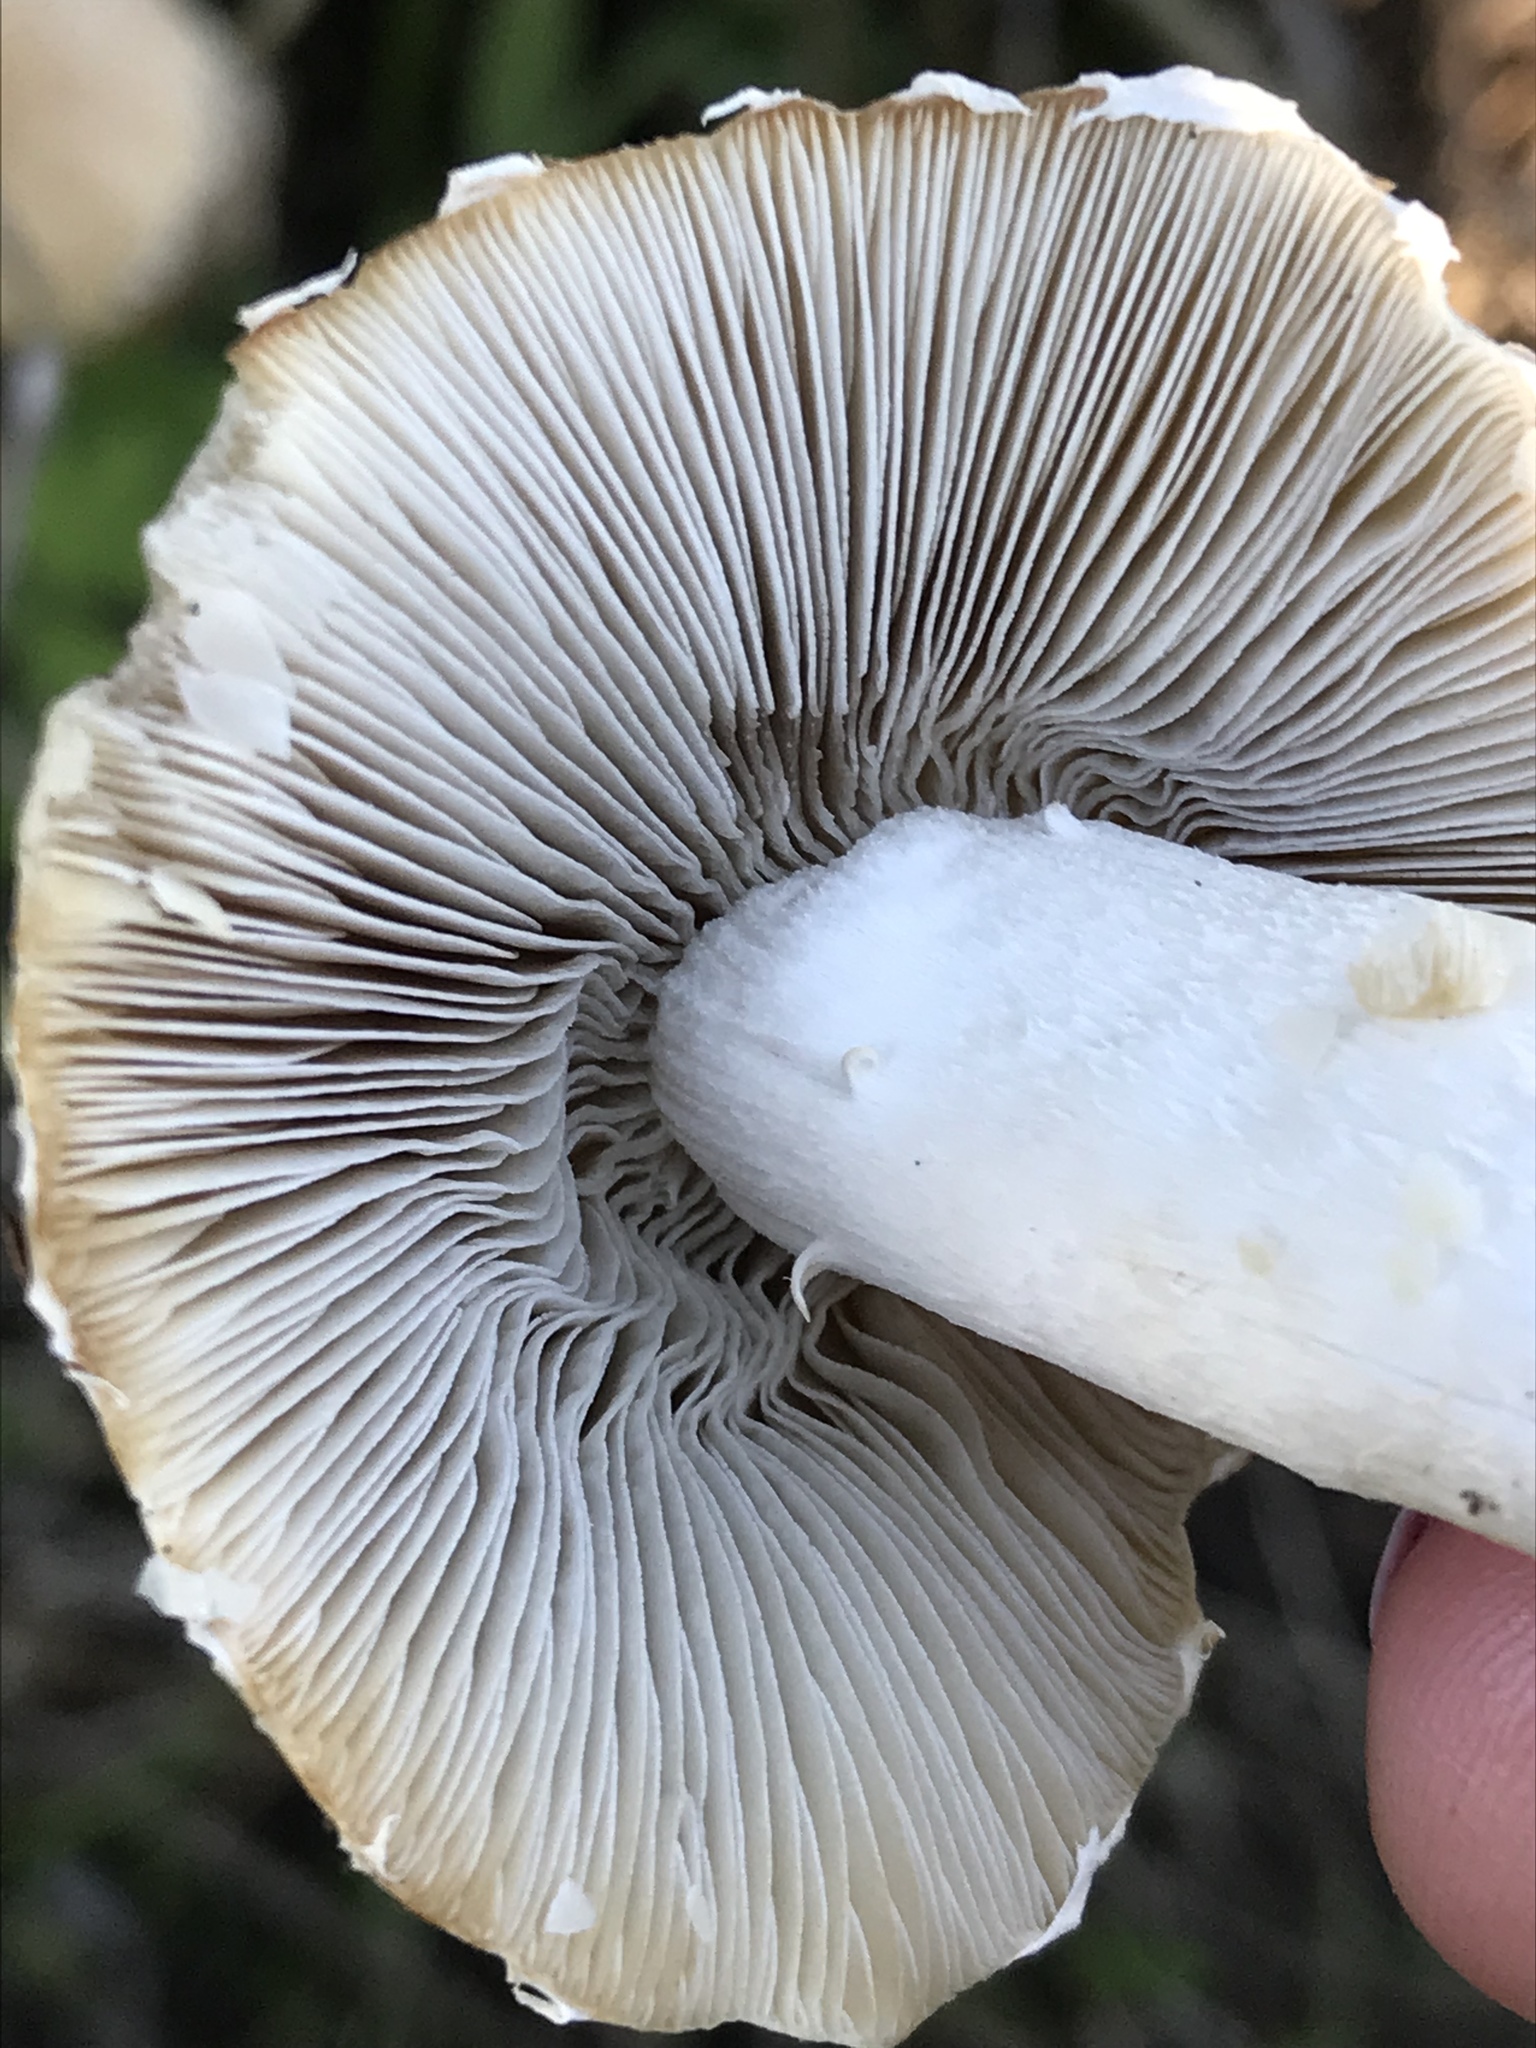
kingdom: Fungi
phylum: Basidiomycota
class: Agaricomycetes
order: Agaricales
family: Psathyrellaceae
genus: Candolleomyces
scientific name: Candolleomyces candolleanus
